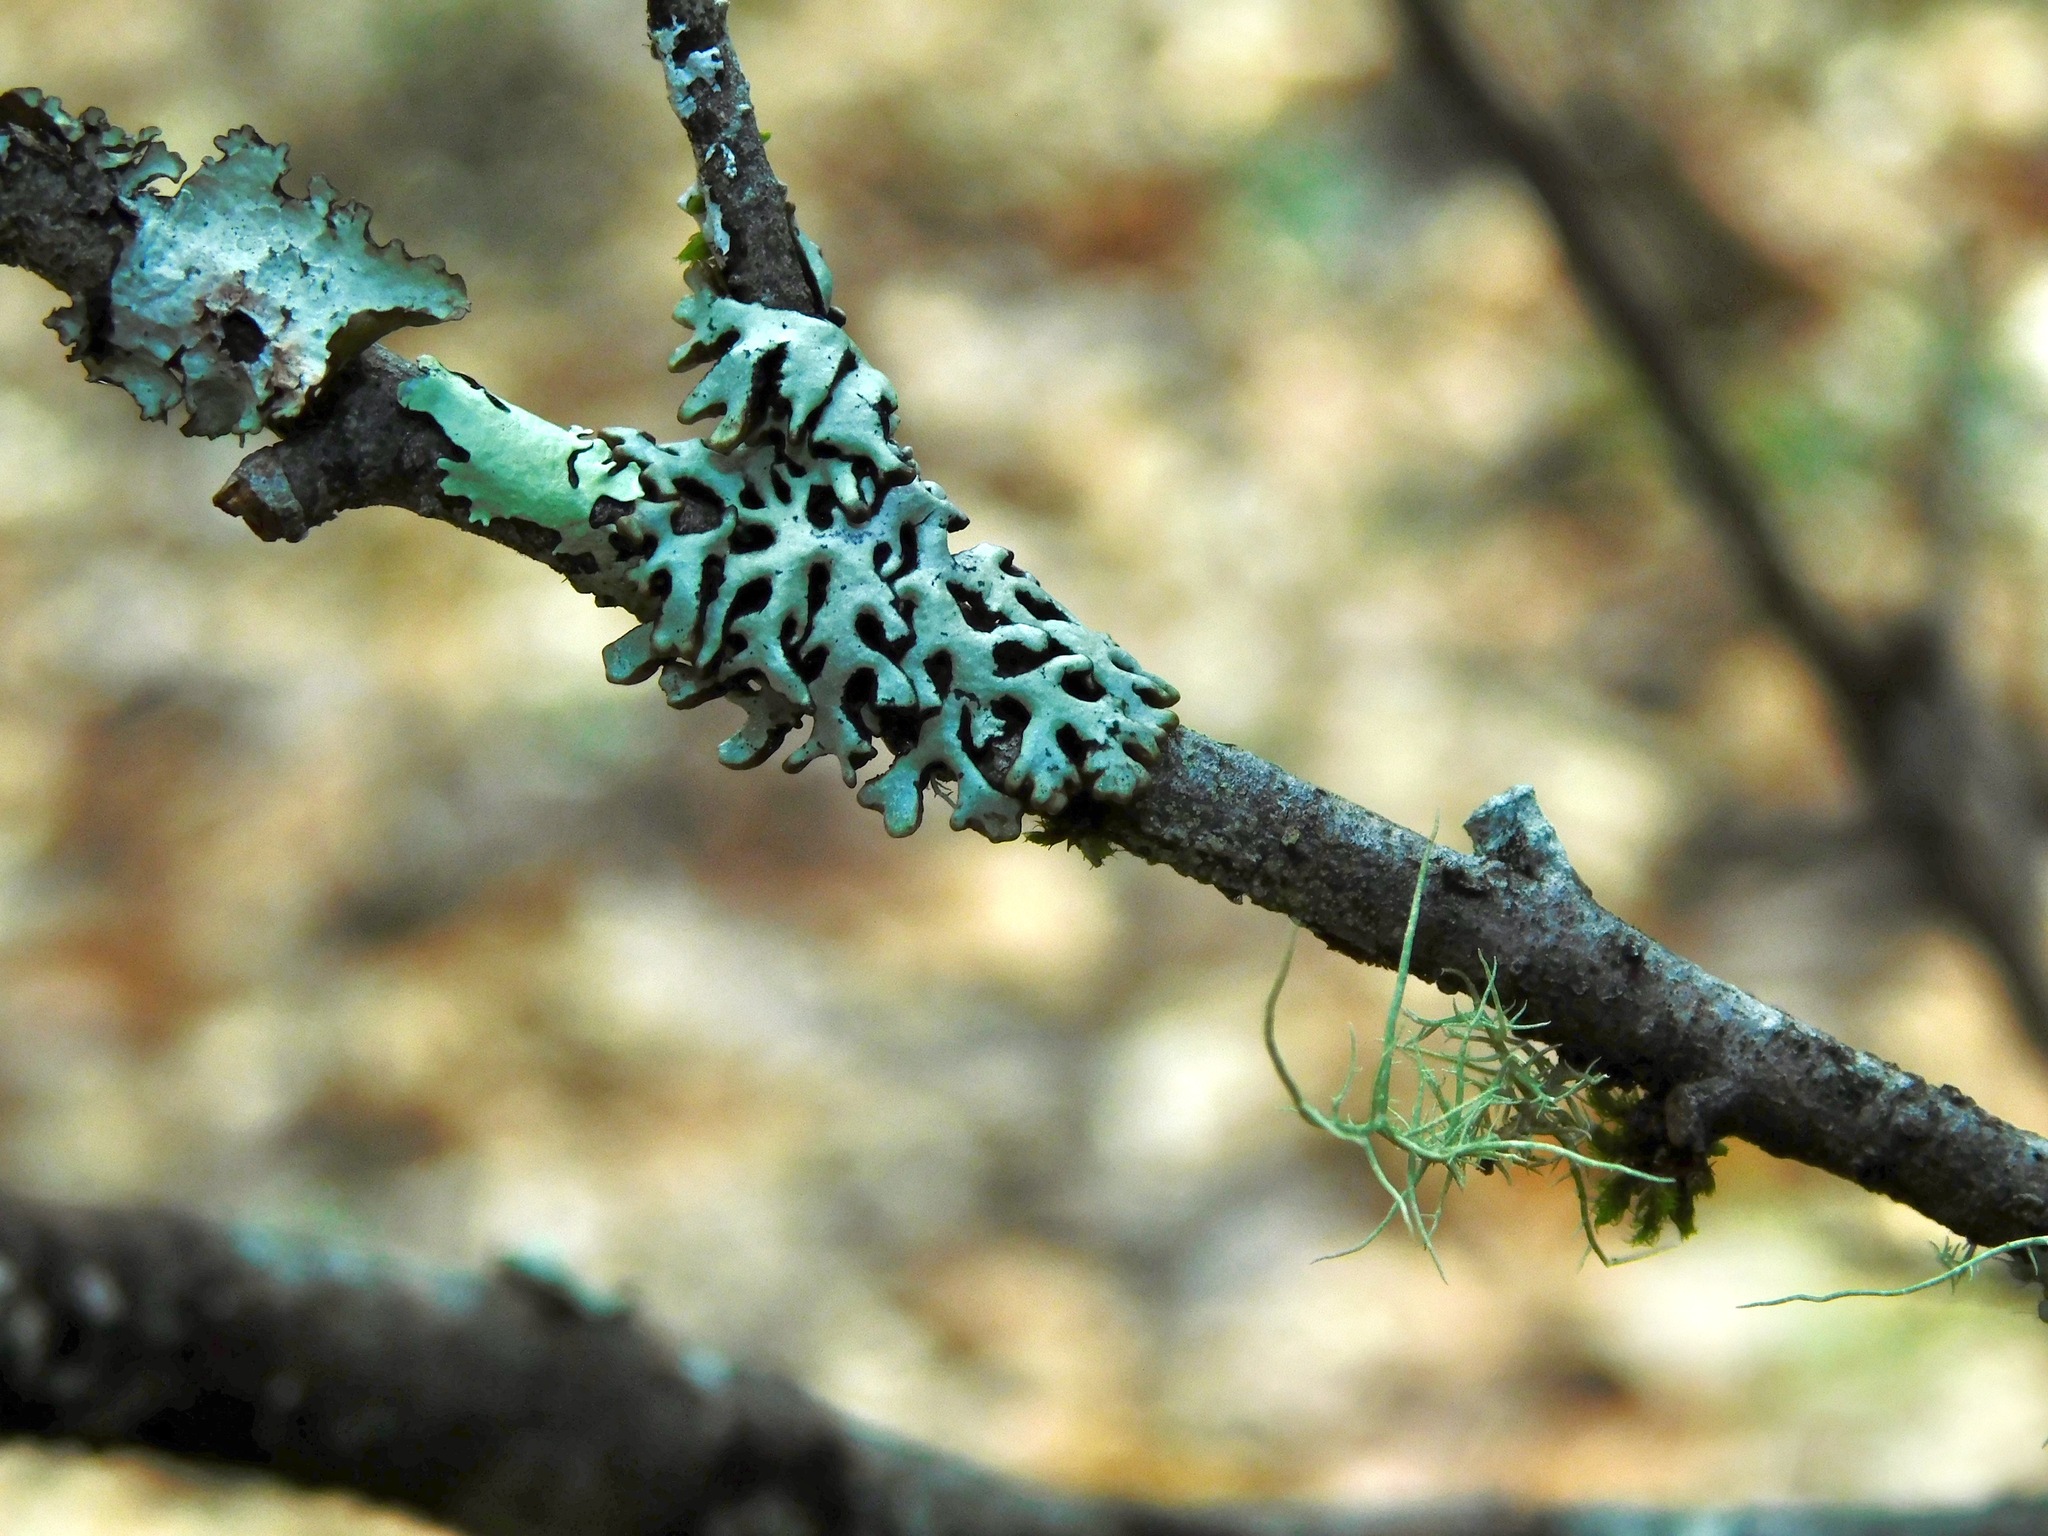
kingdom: Fungi
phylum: Ascomycota
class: Lecanoromycetes
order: Lecanorales
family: Parmeliaceae
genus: Hypogymnia
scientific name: Hypogymnia krogiae
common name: Freckled tube lichen
